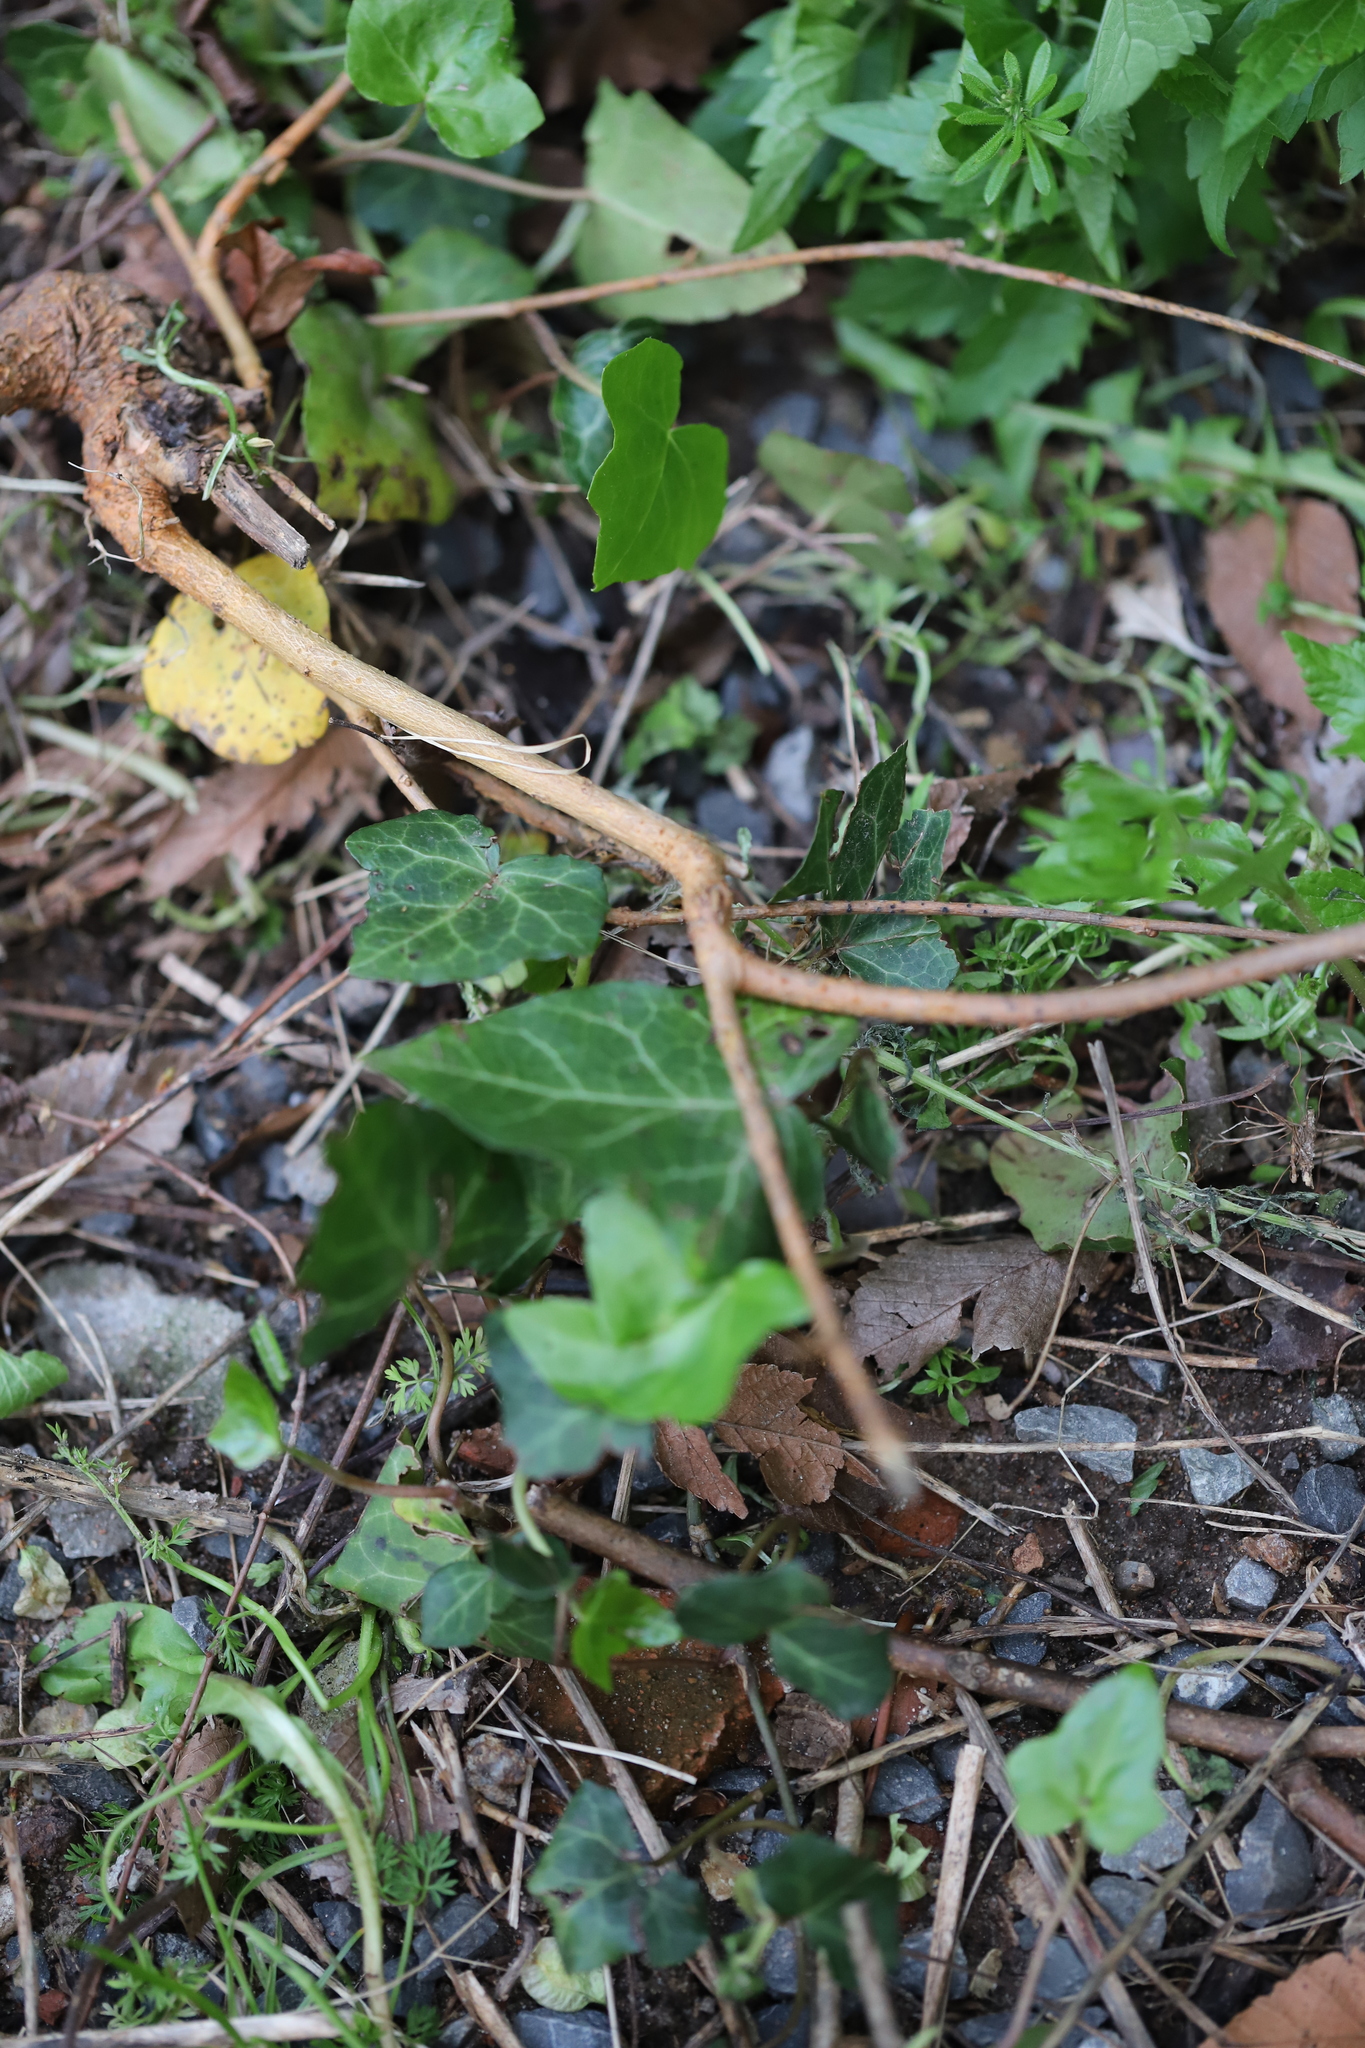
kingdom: Plantae
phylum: Tracheophyta
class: Magnoliopsida
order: Apiales
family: Araliaceae
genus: Hedera
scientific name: Hedera helix
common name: Ivy
